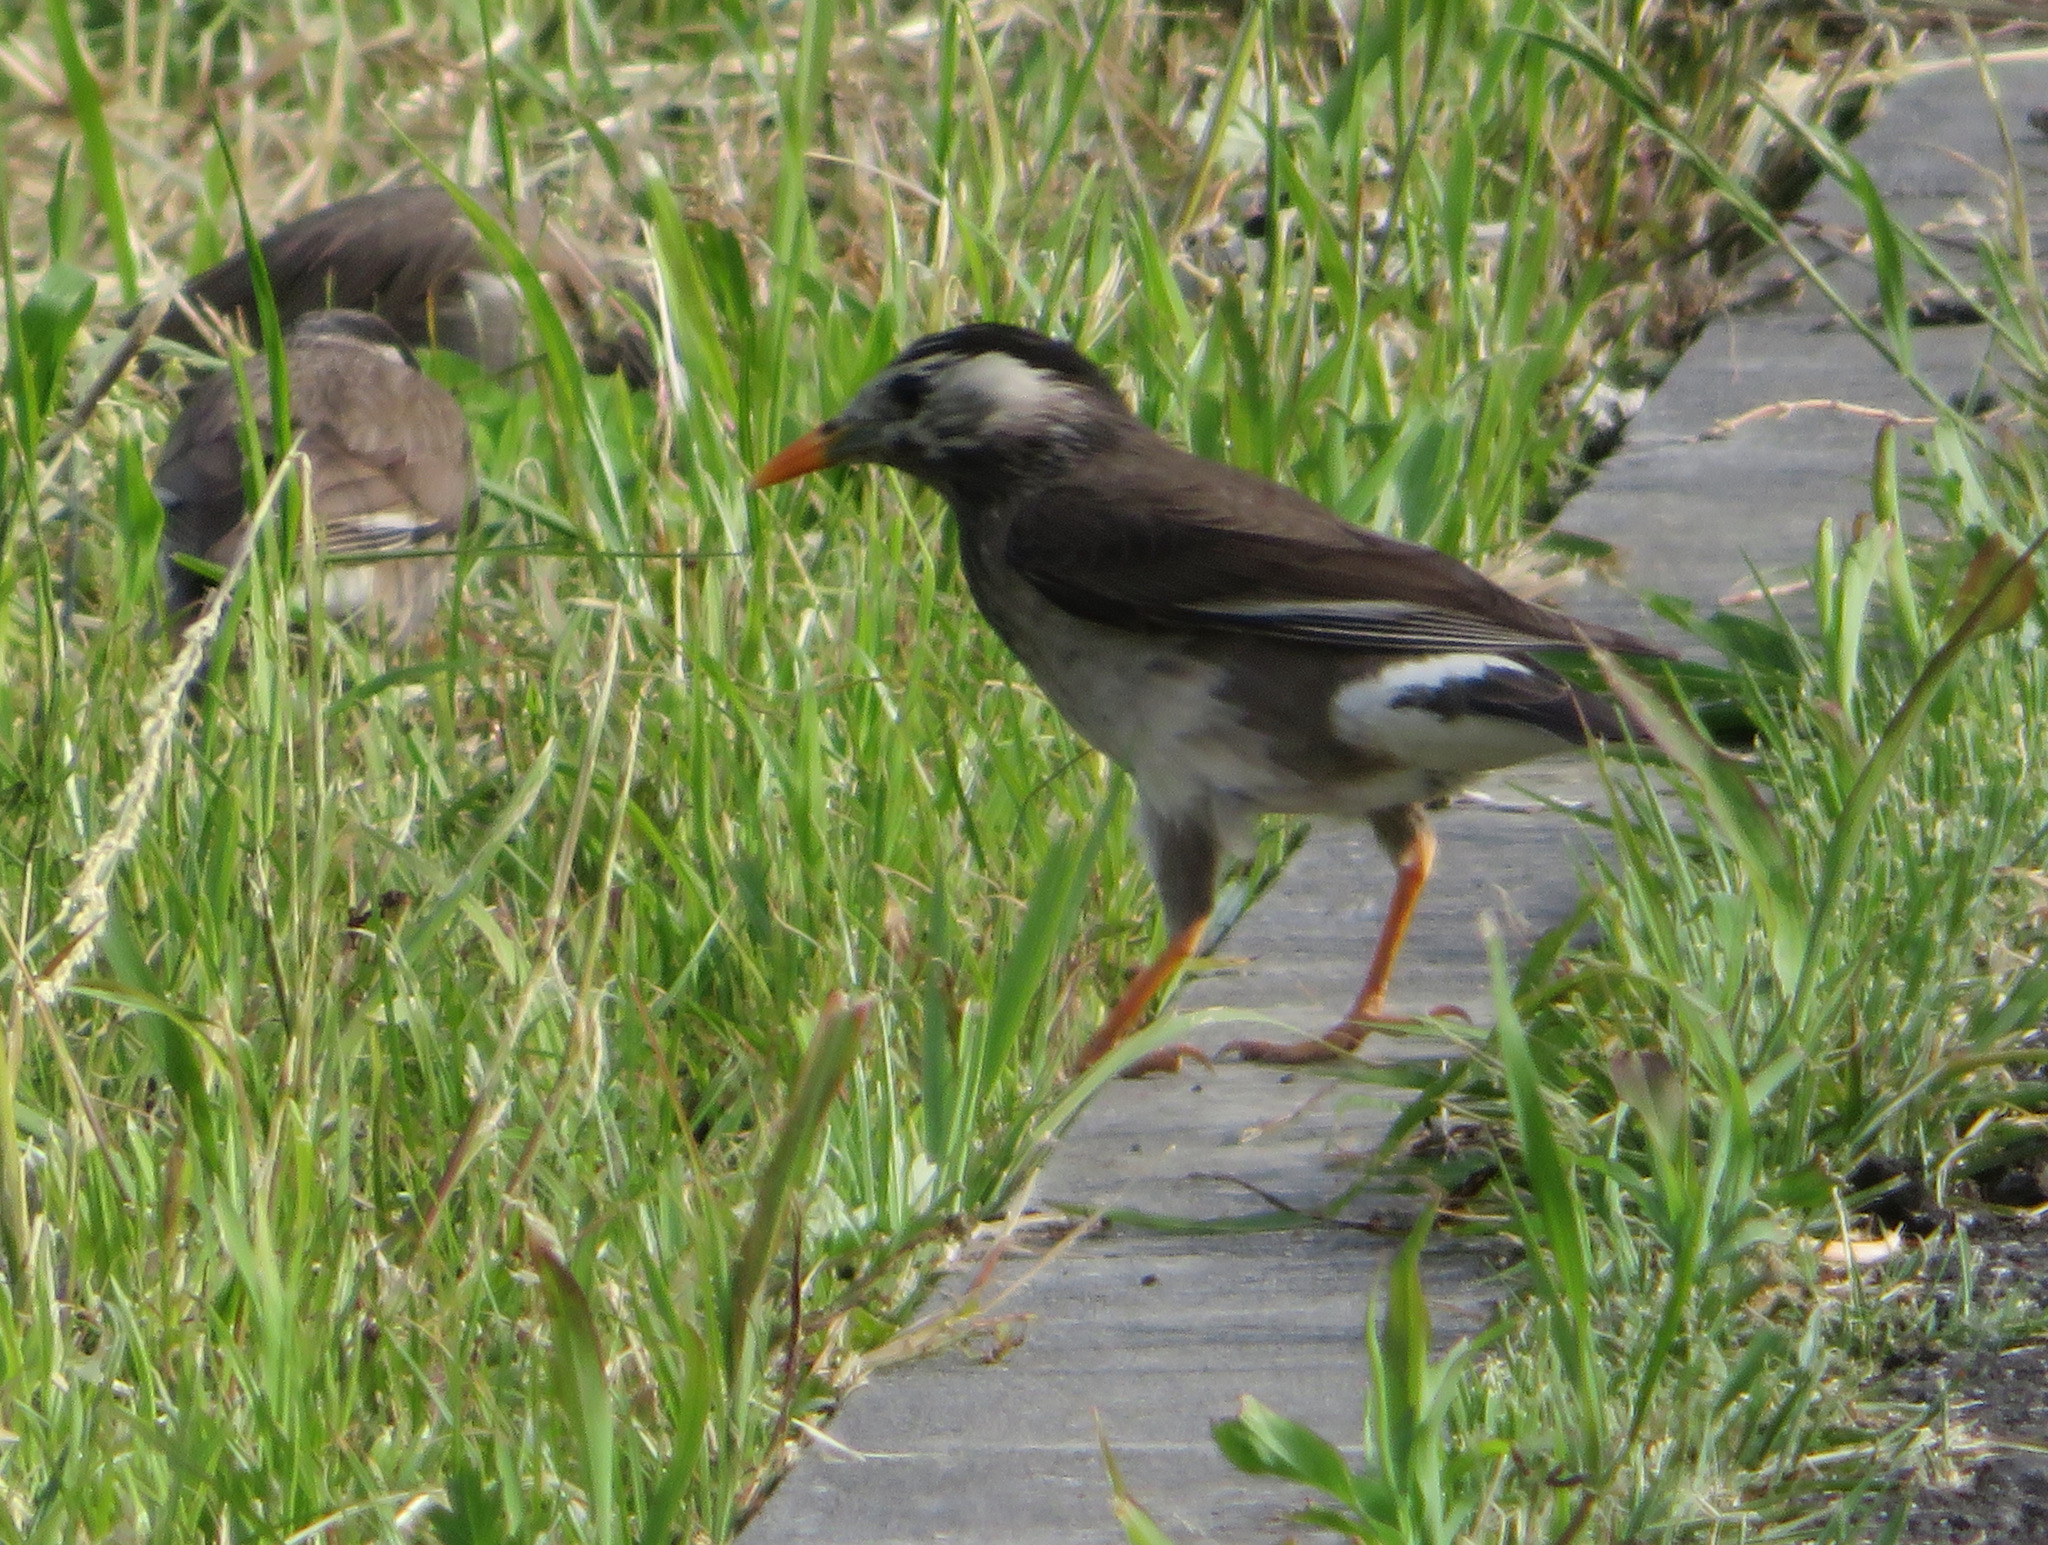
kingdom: Animalia
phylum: Chordata
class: Aves
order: Passeriformes
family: Sturnidae
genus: Spodiopsar
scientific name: Spodiopsar cineraceus
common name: White-cheeked starling
